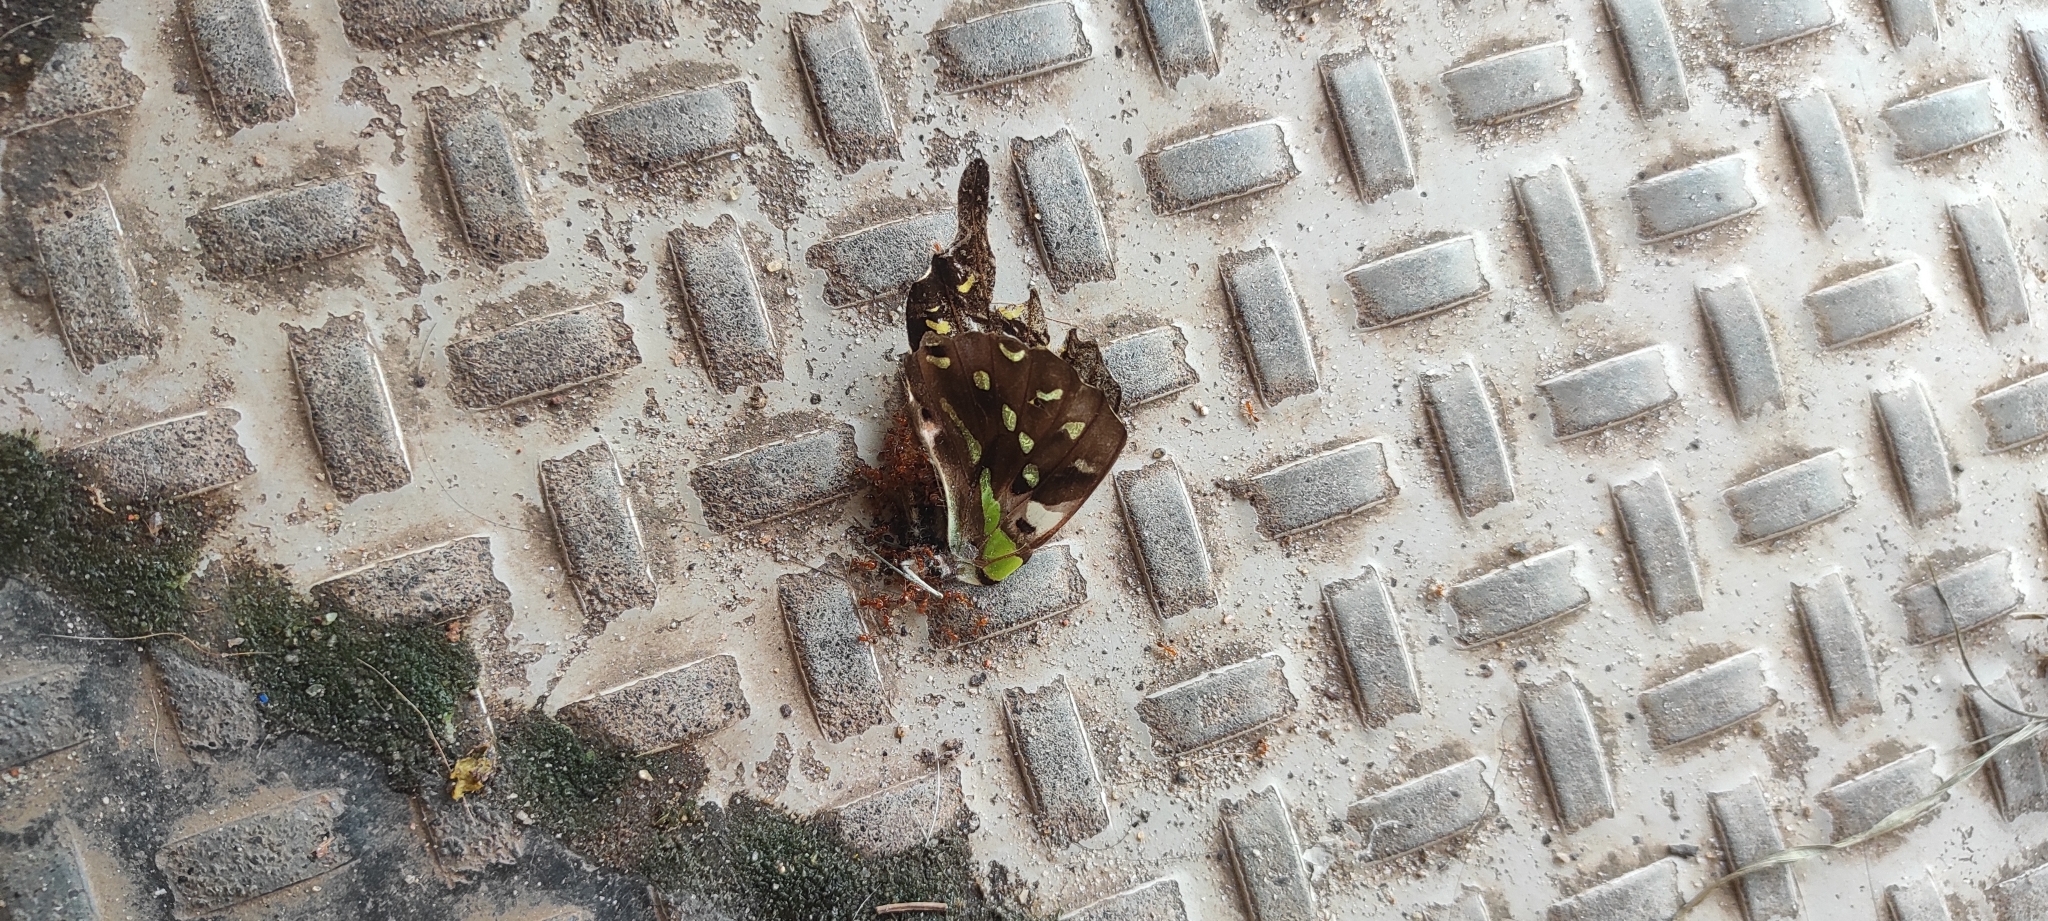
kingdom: Animalia
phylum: Arthropoda
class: Insecta
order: Lepidoptera
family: Papilionidae
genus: Graphium
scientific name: Graphium agamemnon
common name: Tailed jay
